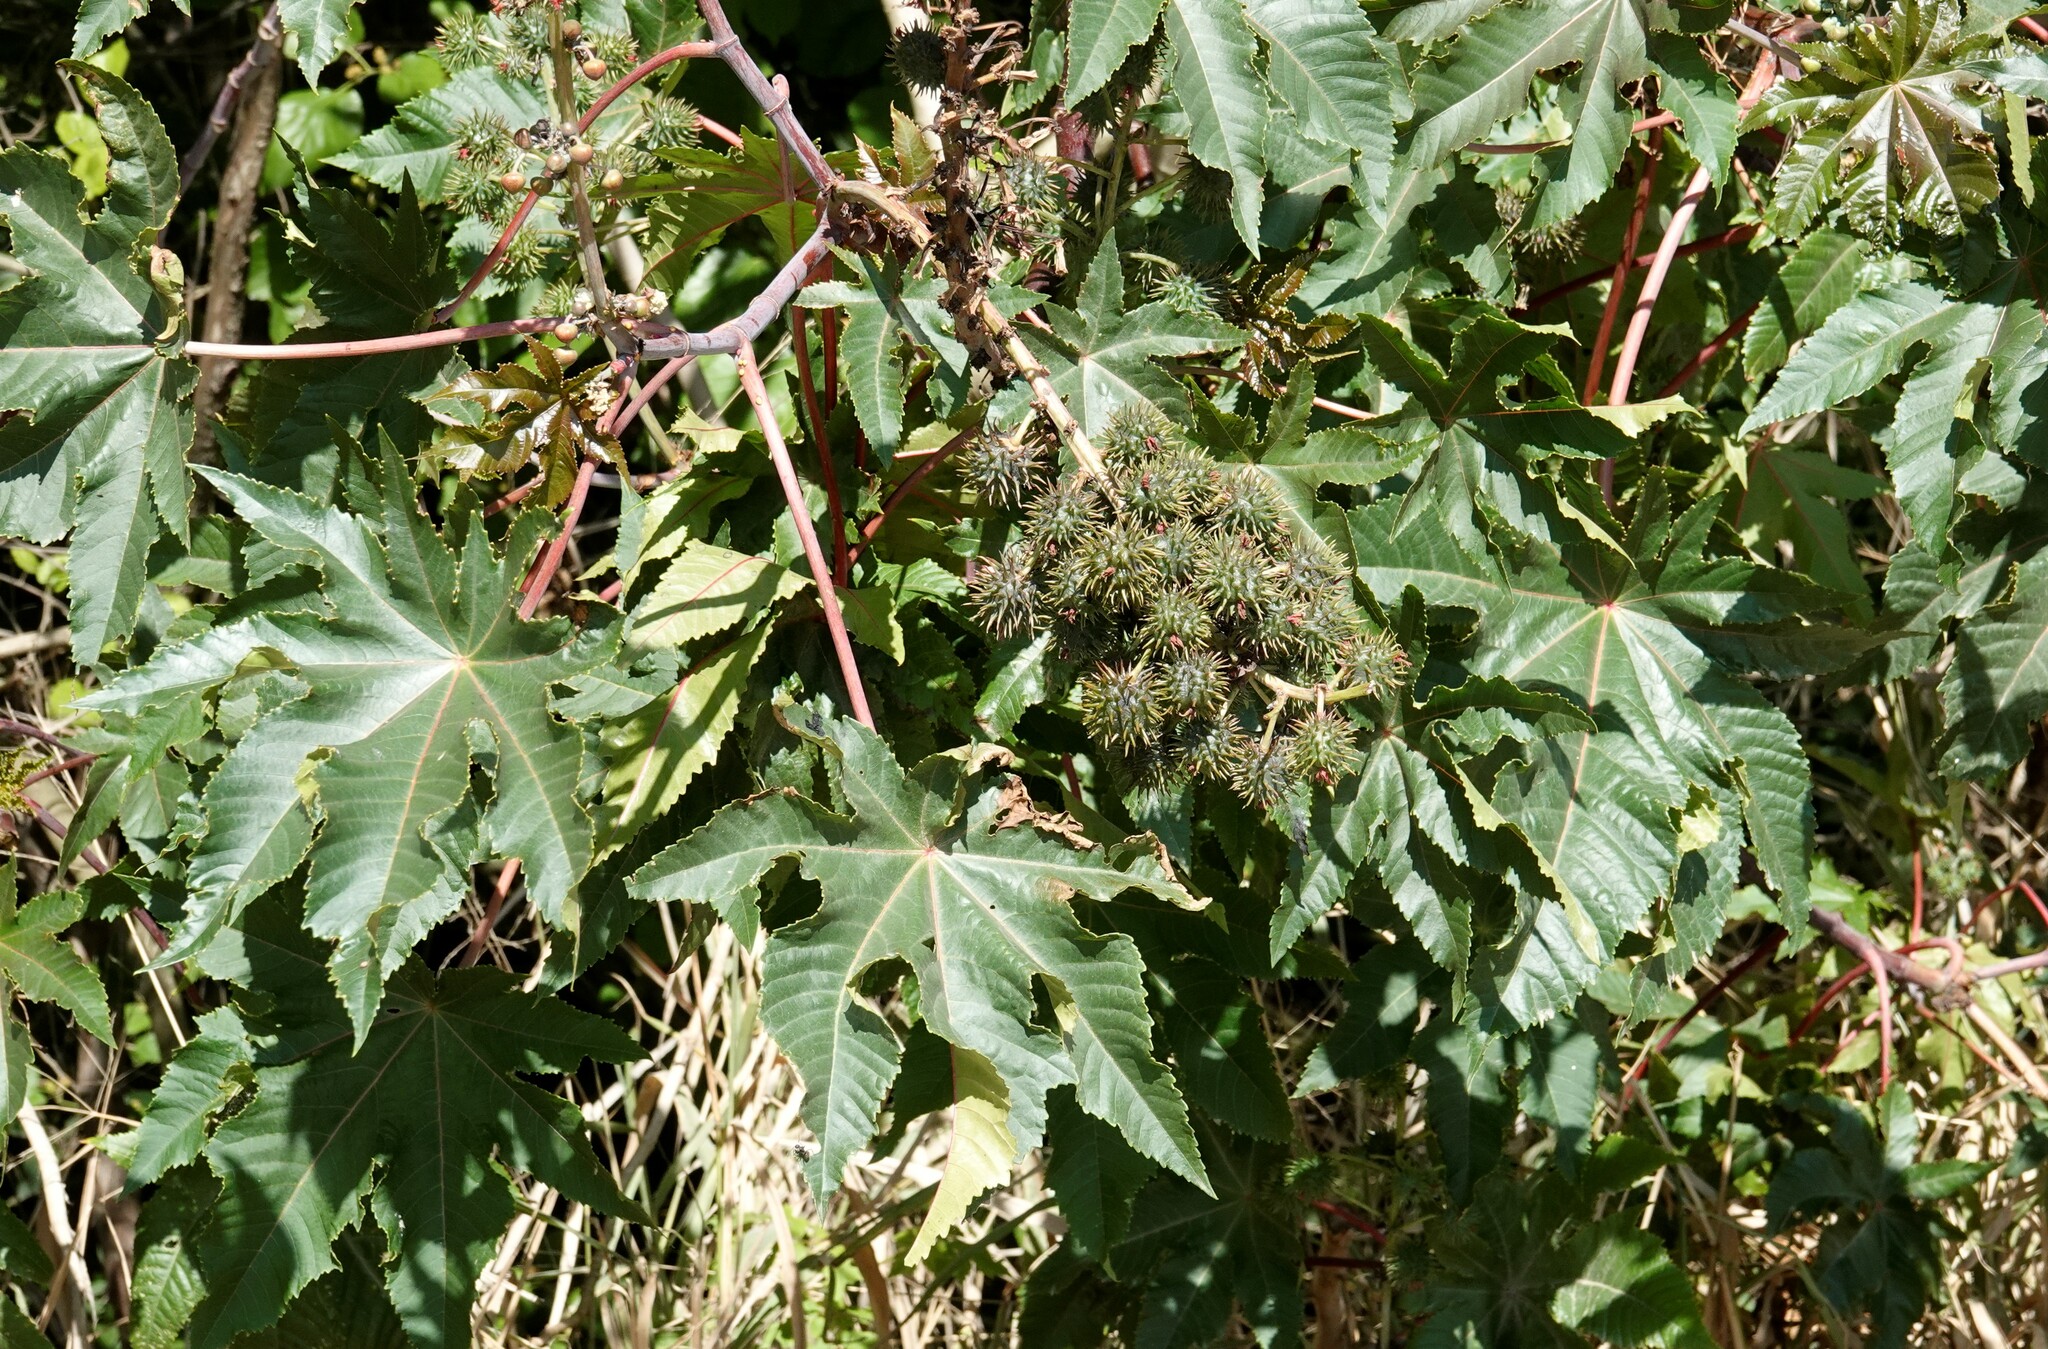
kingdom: Plantae
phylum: Tracheophyta
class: Magnoliopsida
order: Malpighiales
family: Euphorbiaceae
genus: Ricinus
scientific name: Ricinus communis
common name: Castor-oil-plant
